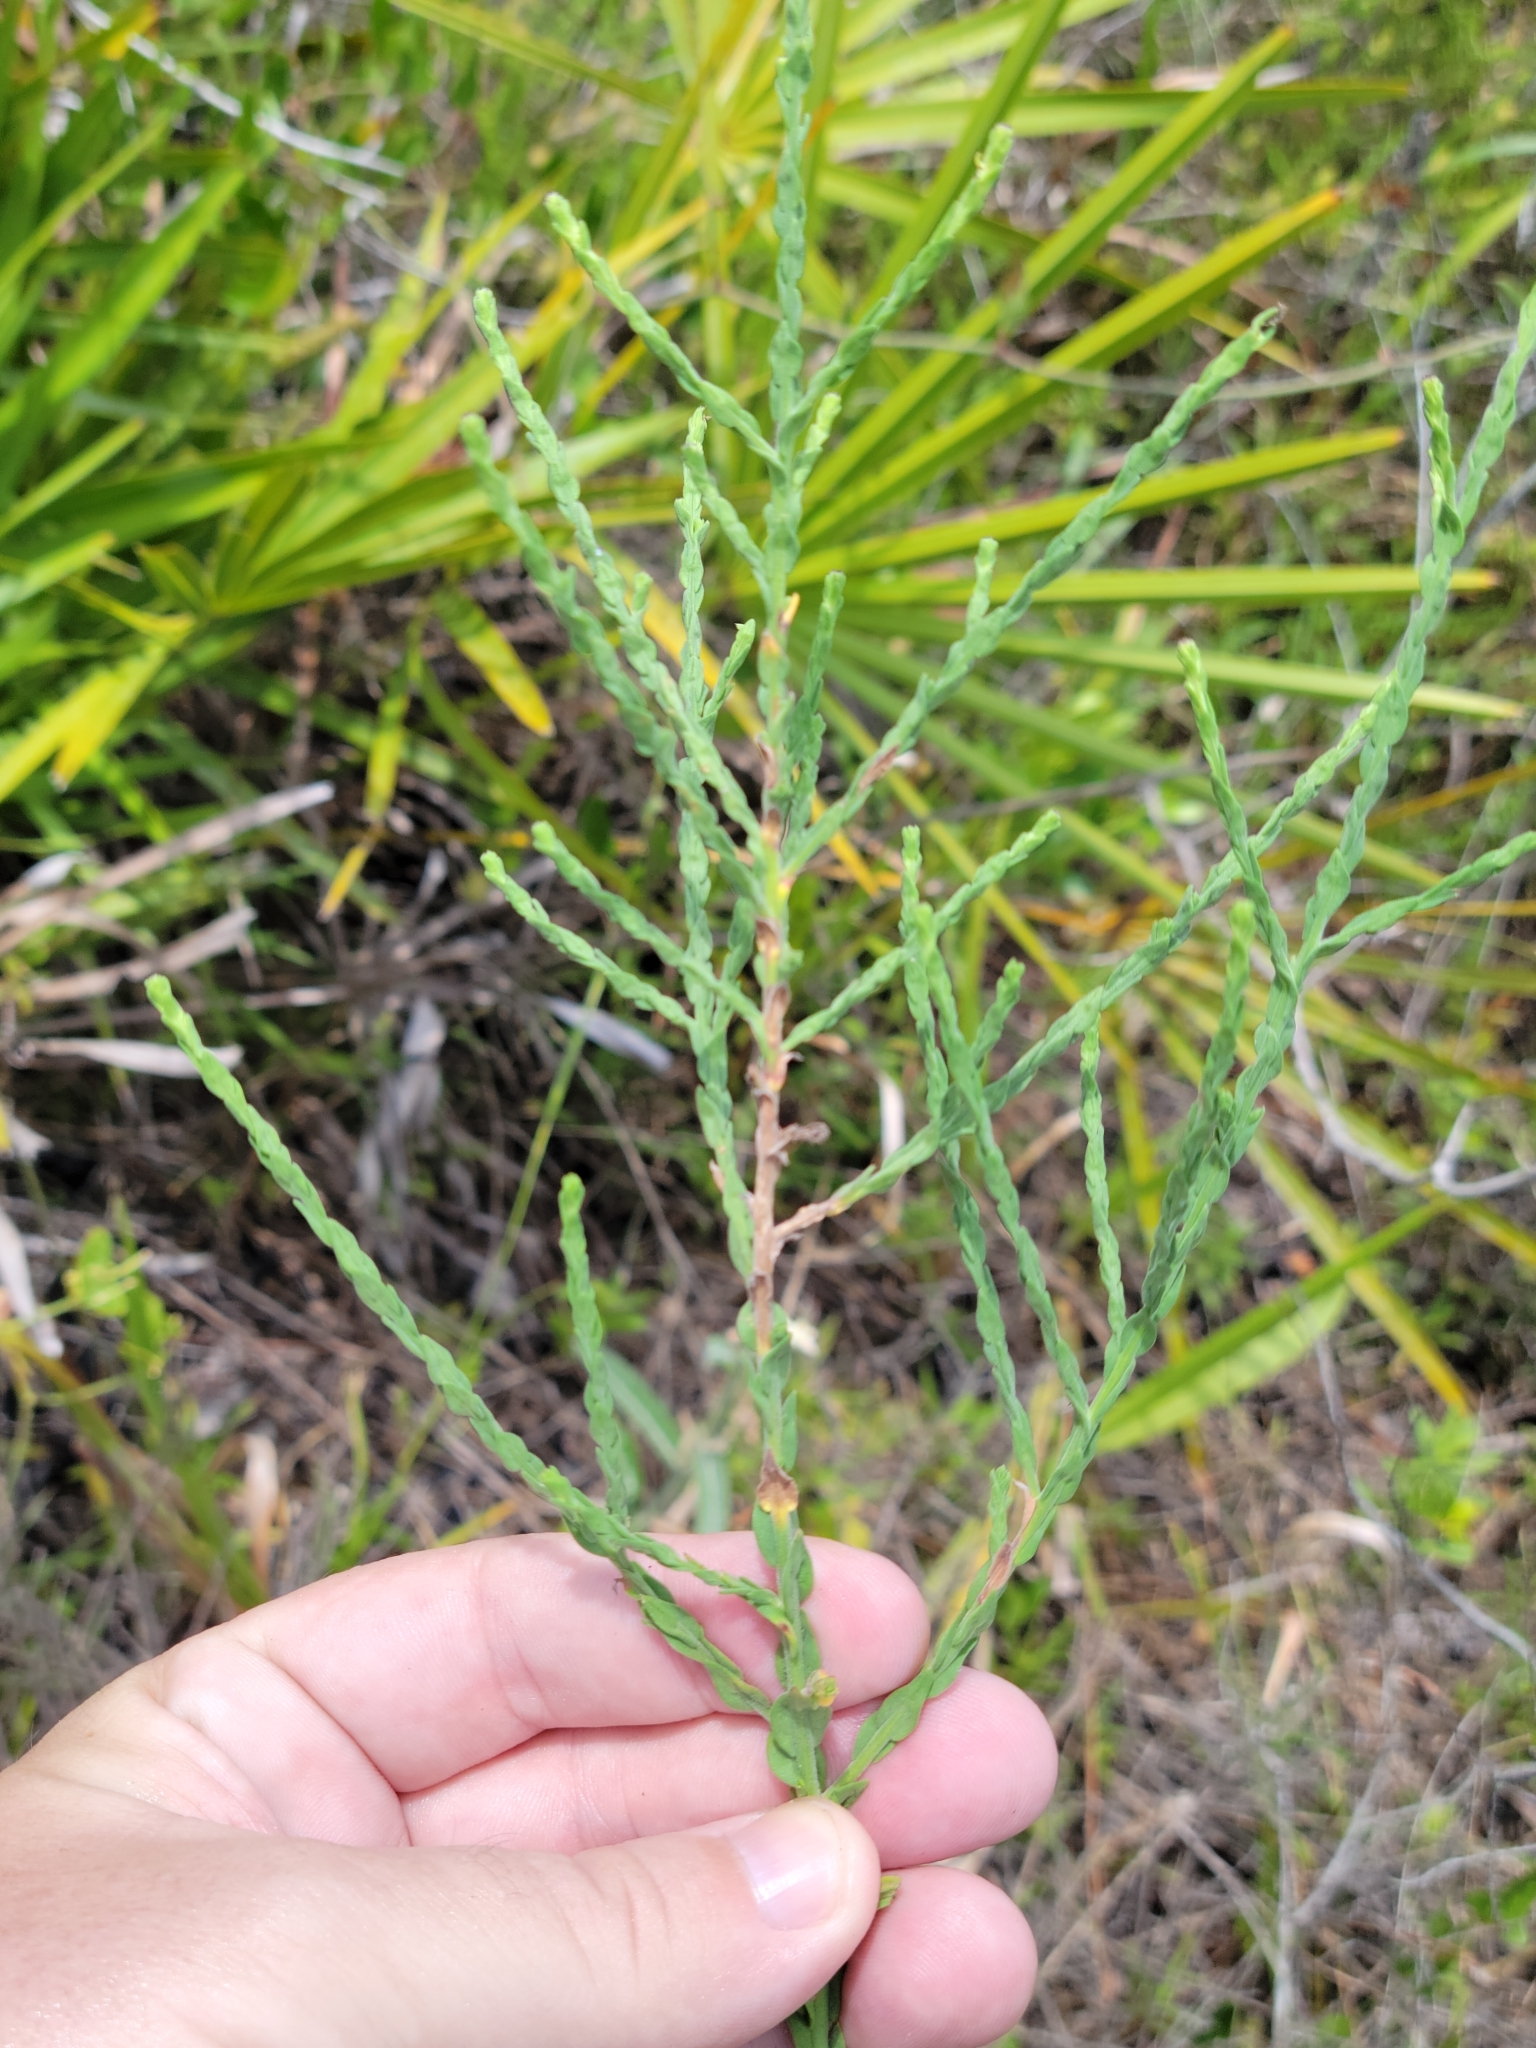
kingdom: Plantae
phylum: Tracheophyta
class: Magnoliopsida
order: Asterales
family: Asteraceae
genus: Symphyotrichum
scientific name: Symphyotrichum adnatum
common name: Scale-leaf aster
